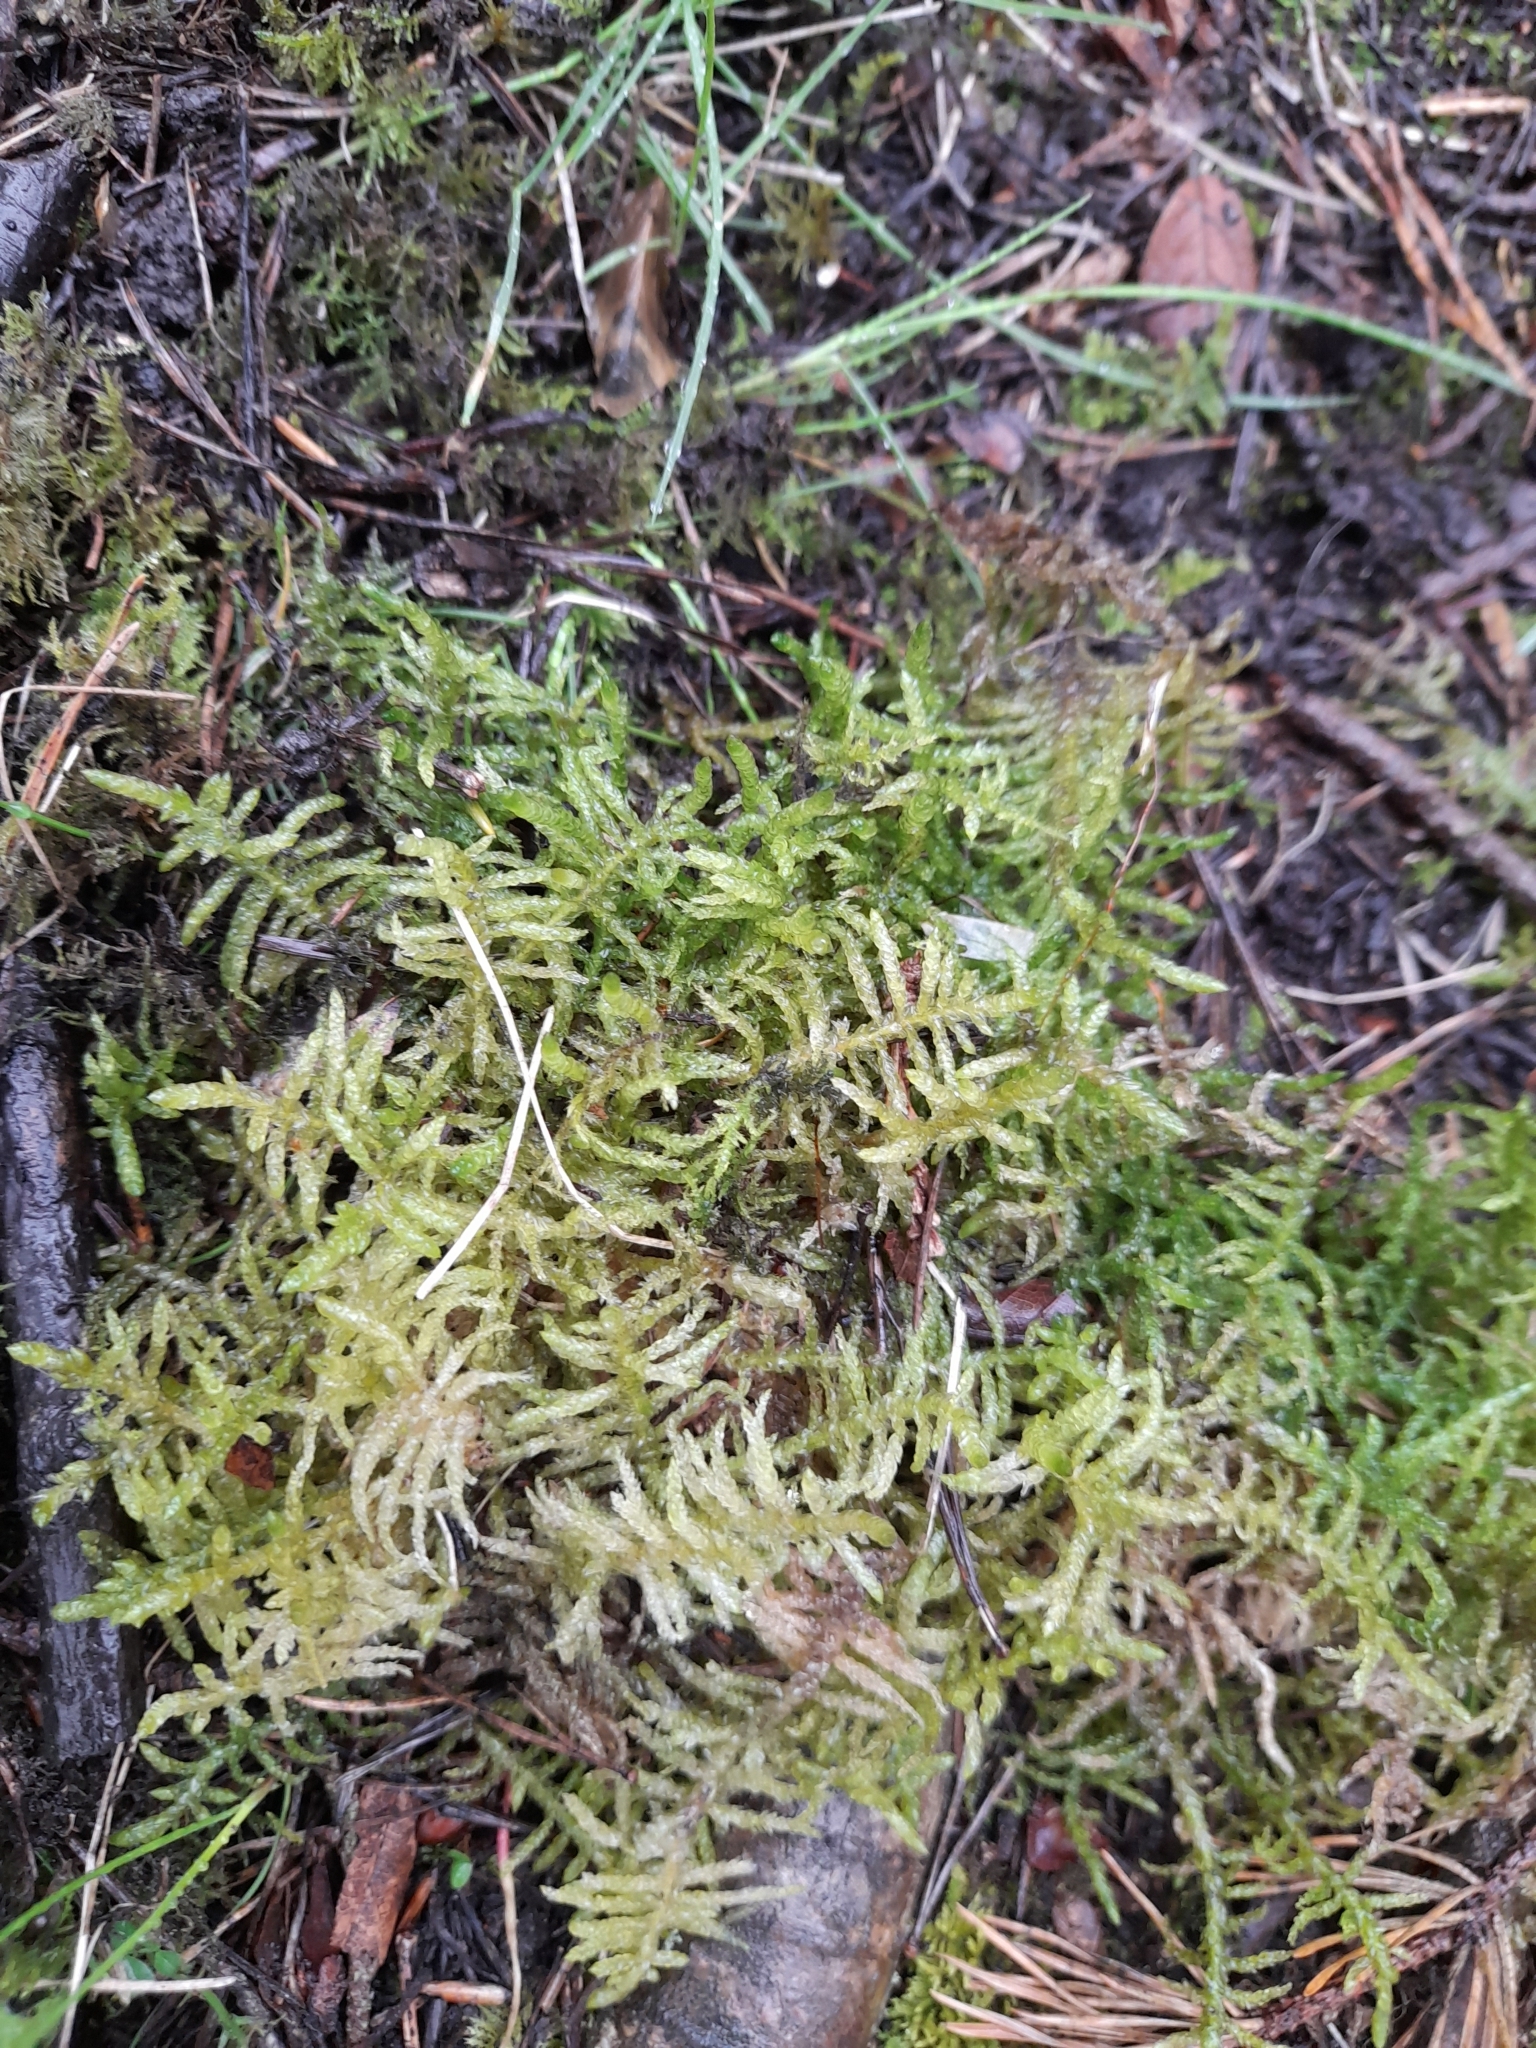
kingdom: Plantae
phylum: Bryophyta
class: Bryopsida
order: Hypnales
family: Brachytheciaceae
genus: Pseudoscleropodium
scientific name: Pseudoscleropodium purum
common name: Neat feather-moss
